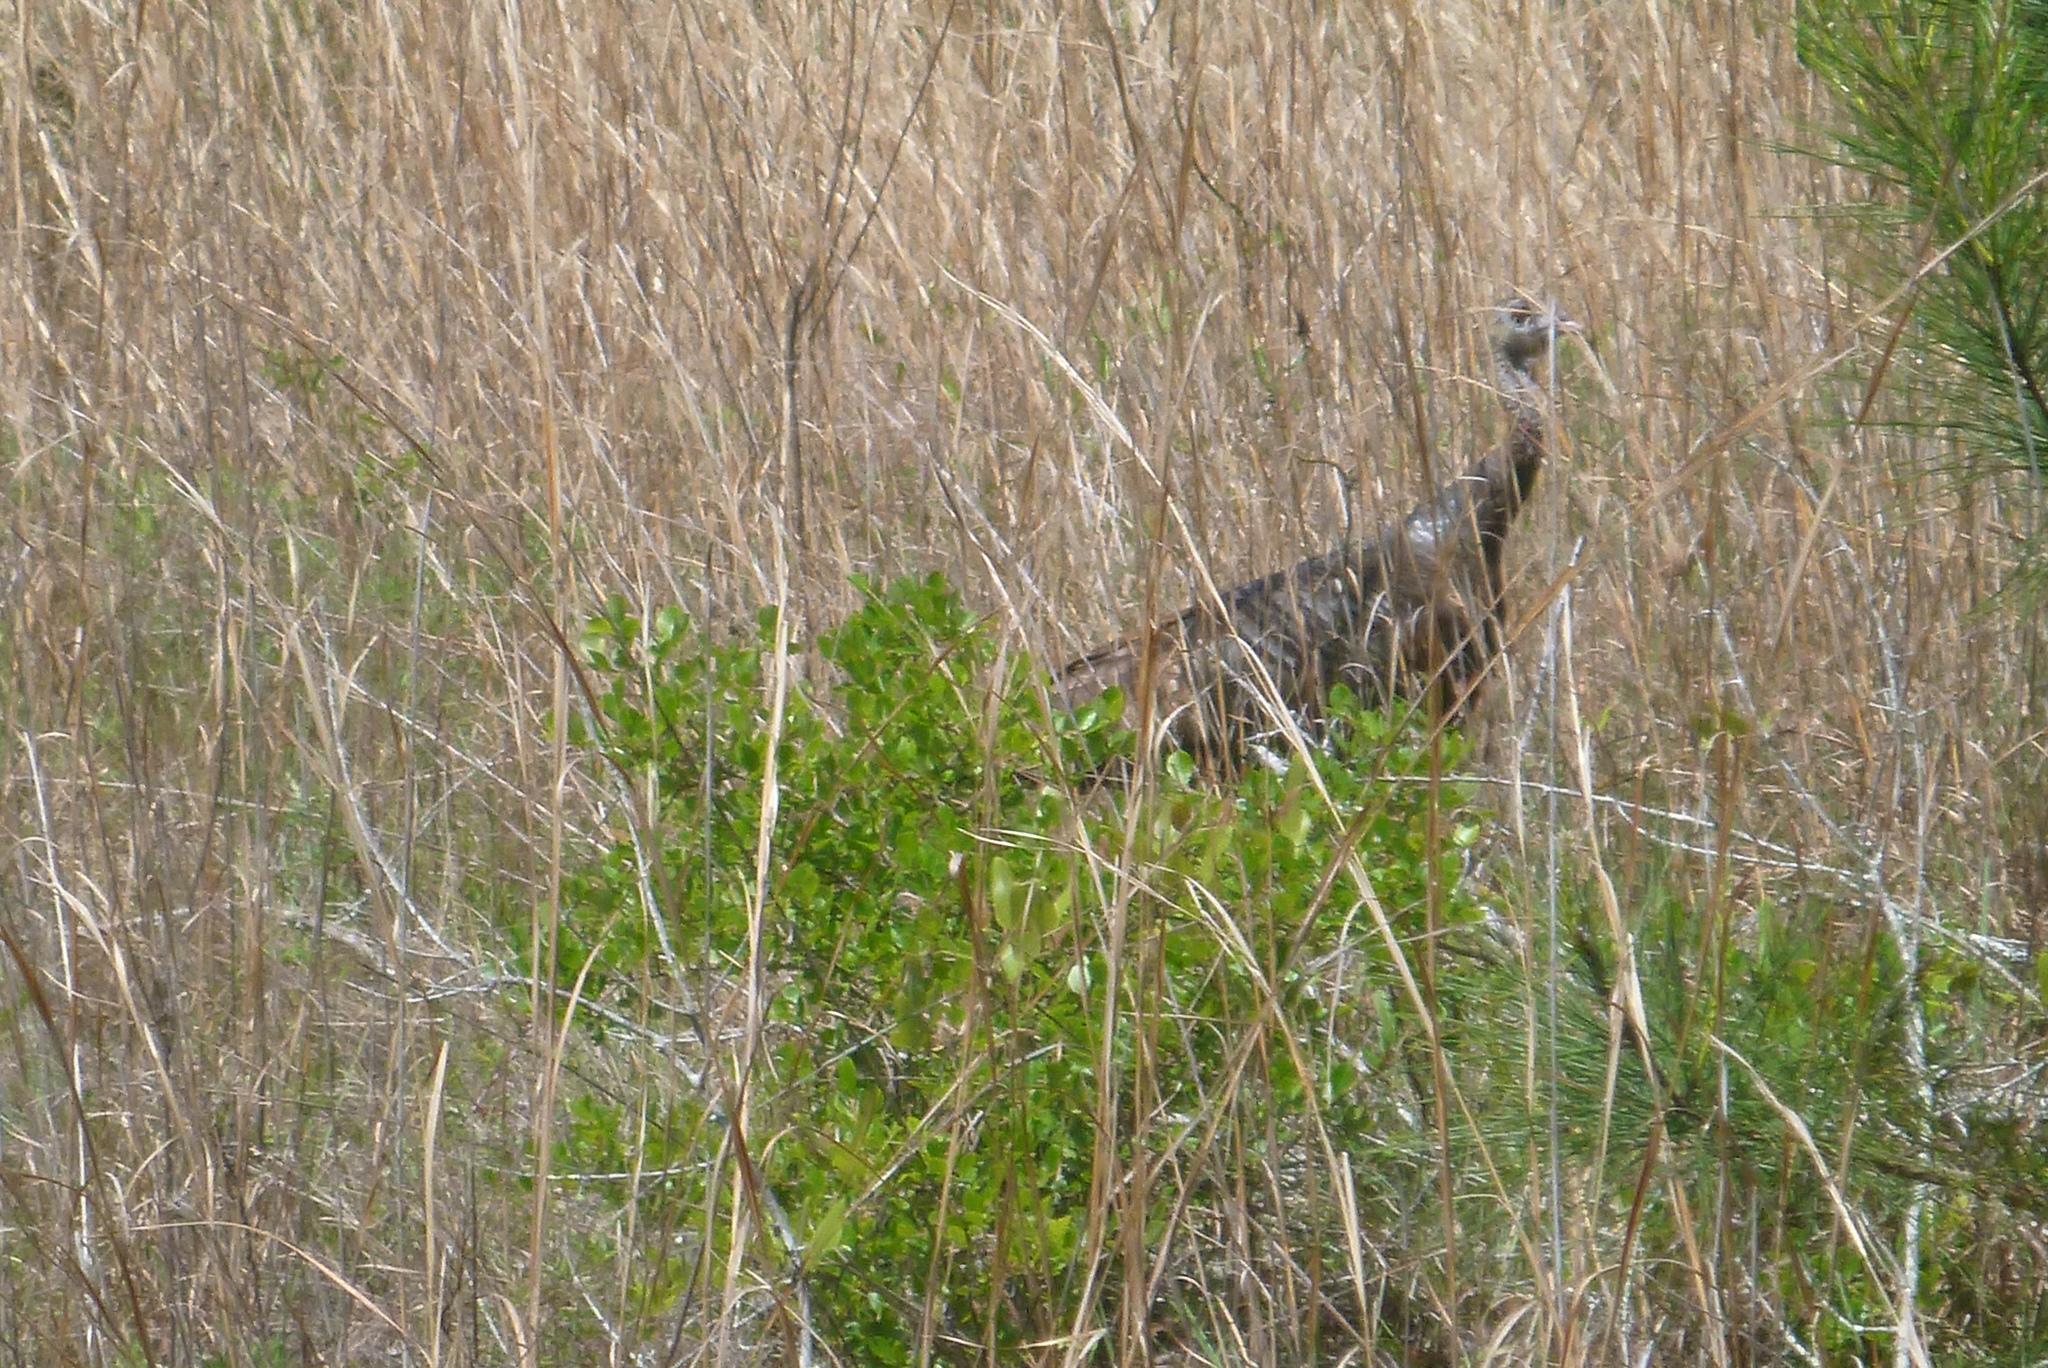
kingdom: Animalia
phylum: Chordata
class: Aves
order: Galliformes
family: Phasianidae
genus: Meleagris
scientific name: Meleagris gallopavo
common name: Wild turkey
